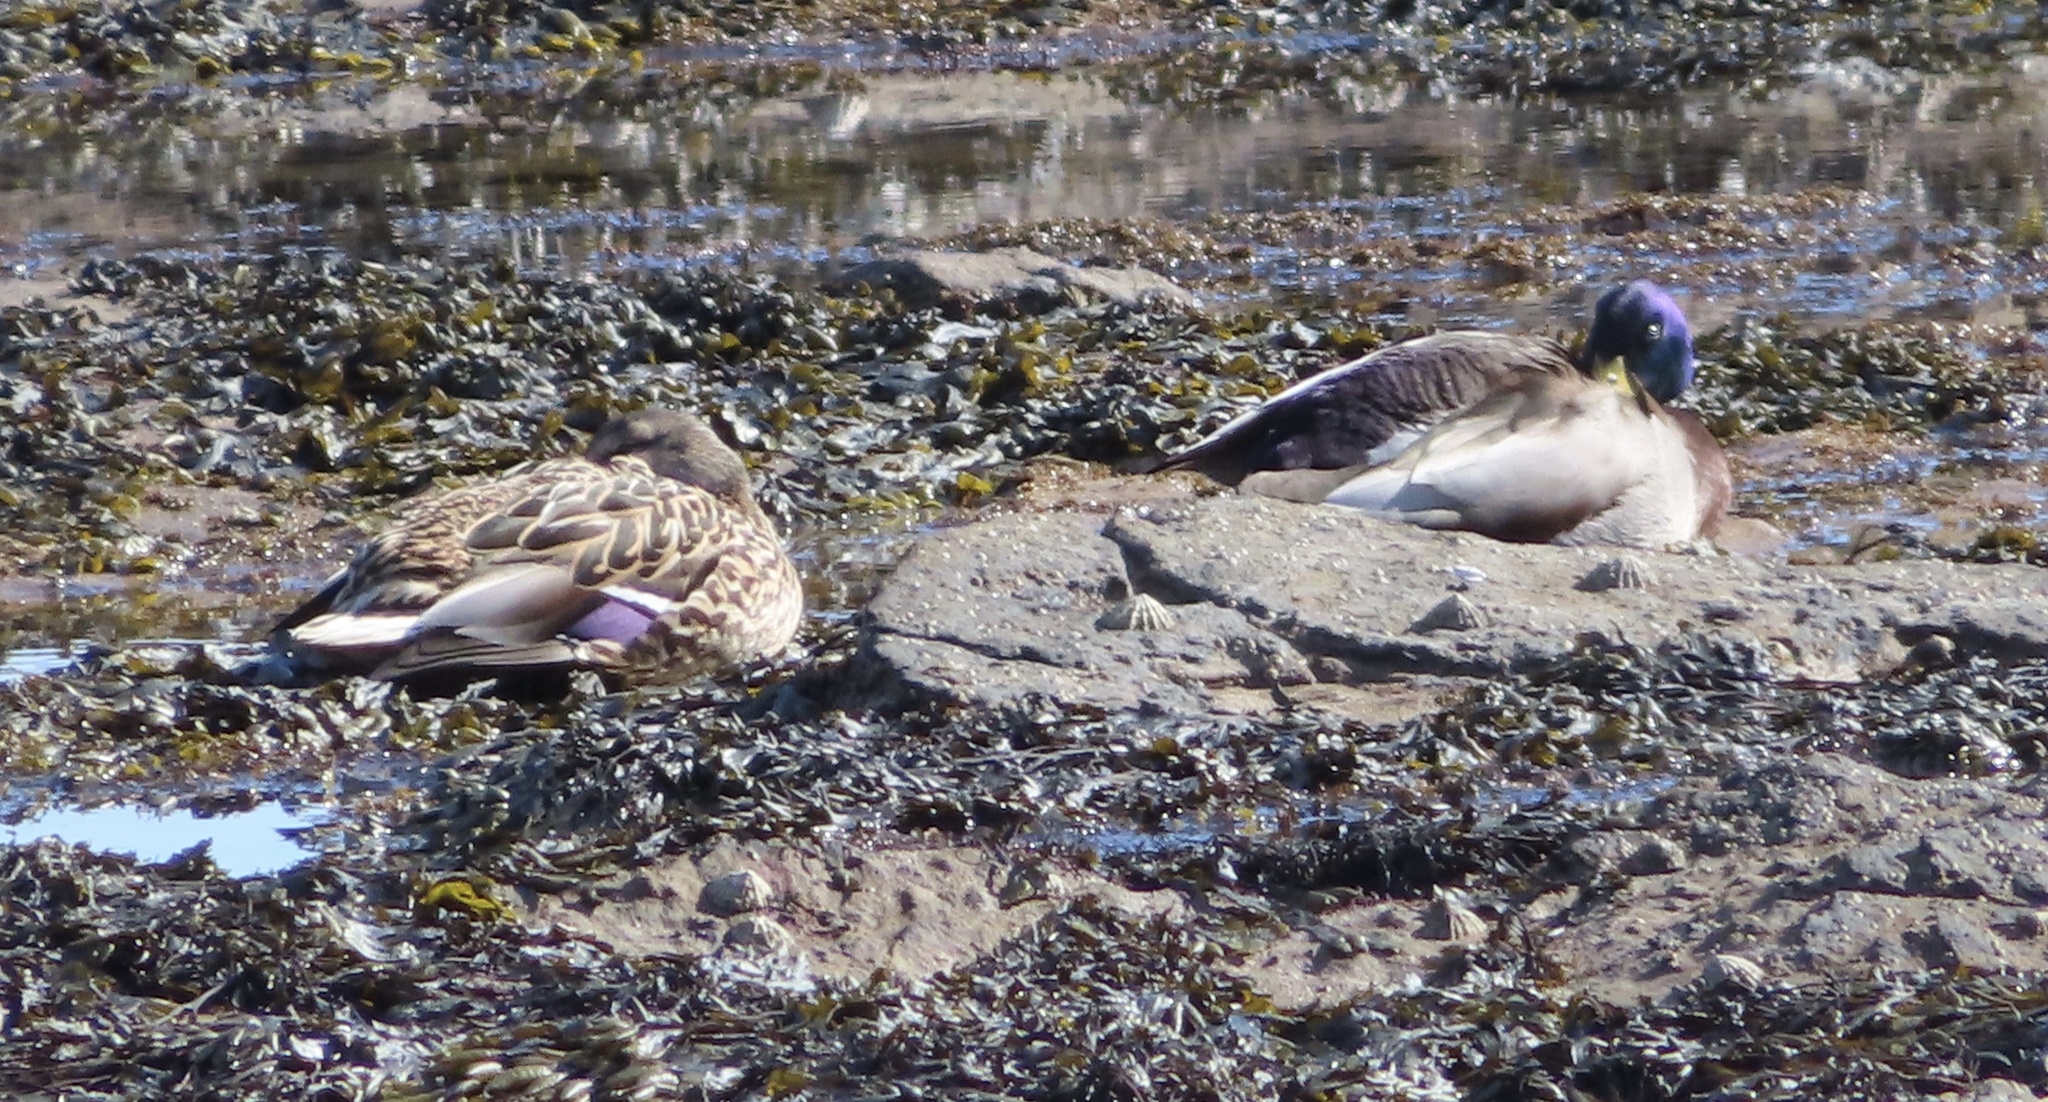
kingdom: Animalia
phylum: Chordata
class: Aves
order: Anseriformes
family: Anatidae
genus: Anas
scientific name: Anas platyrhynchos
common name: Mallard
